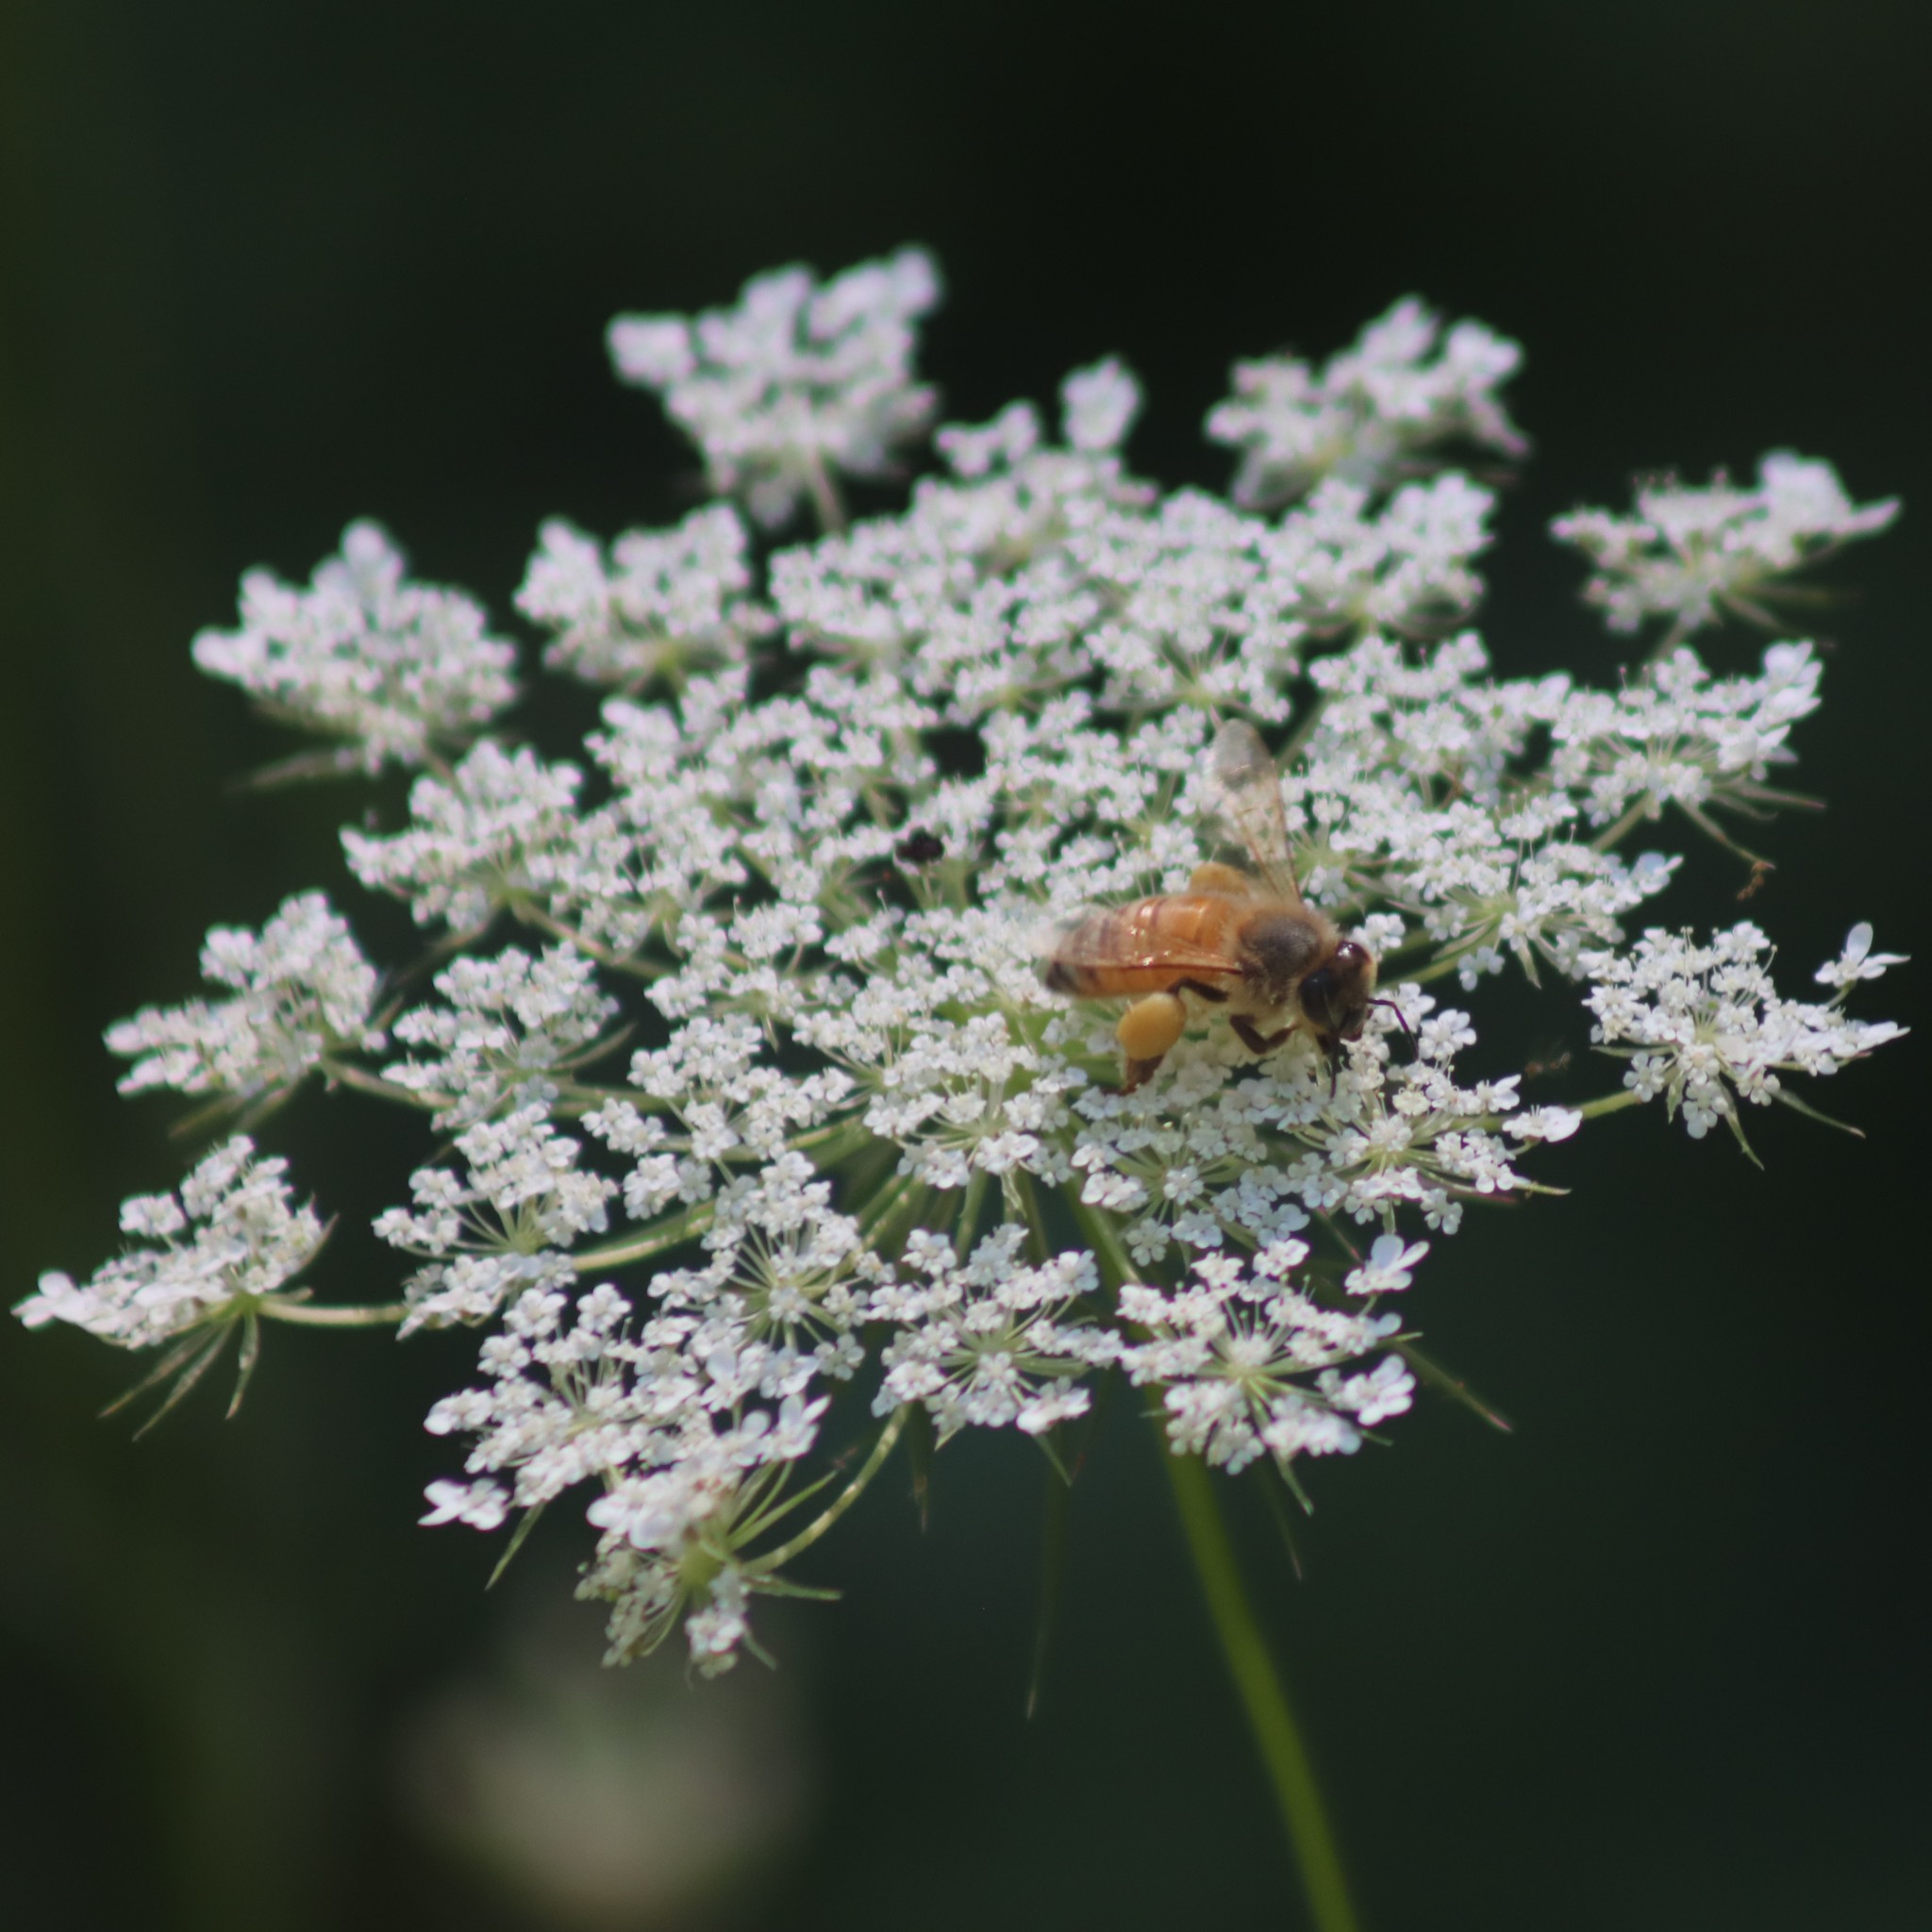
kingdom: Plantae
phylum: Tracheophyta
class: Magnoliopsida
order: Apiales
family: Apiaceae
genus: Daucus
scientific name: Daucus carota
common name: Wild carrot
